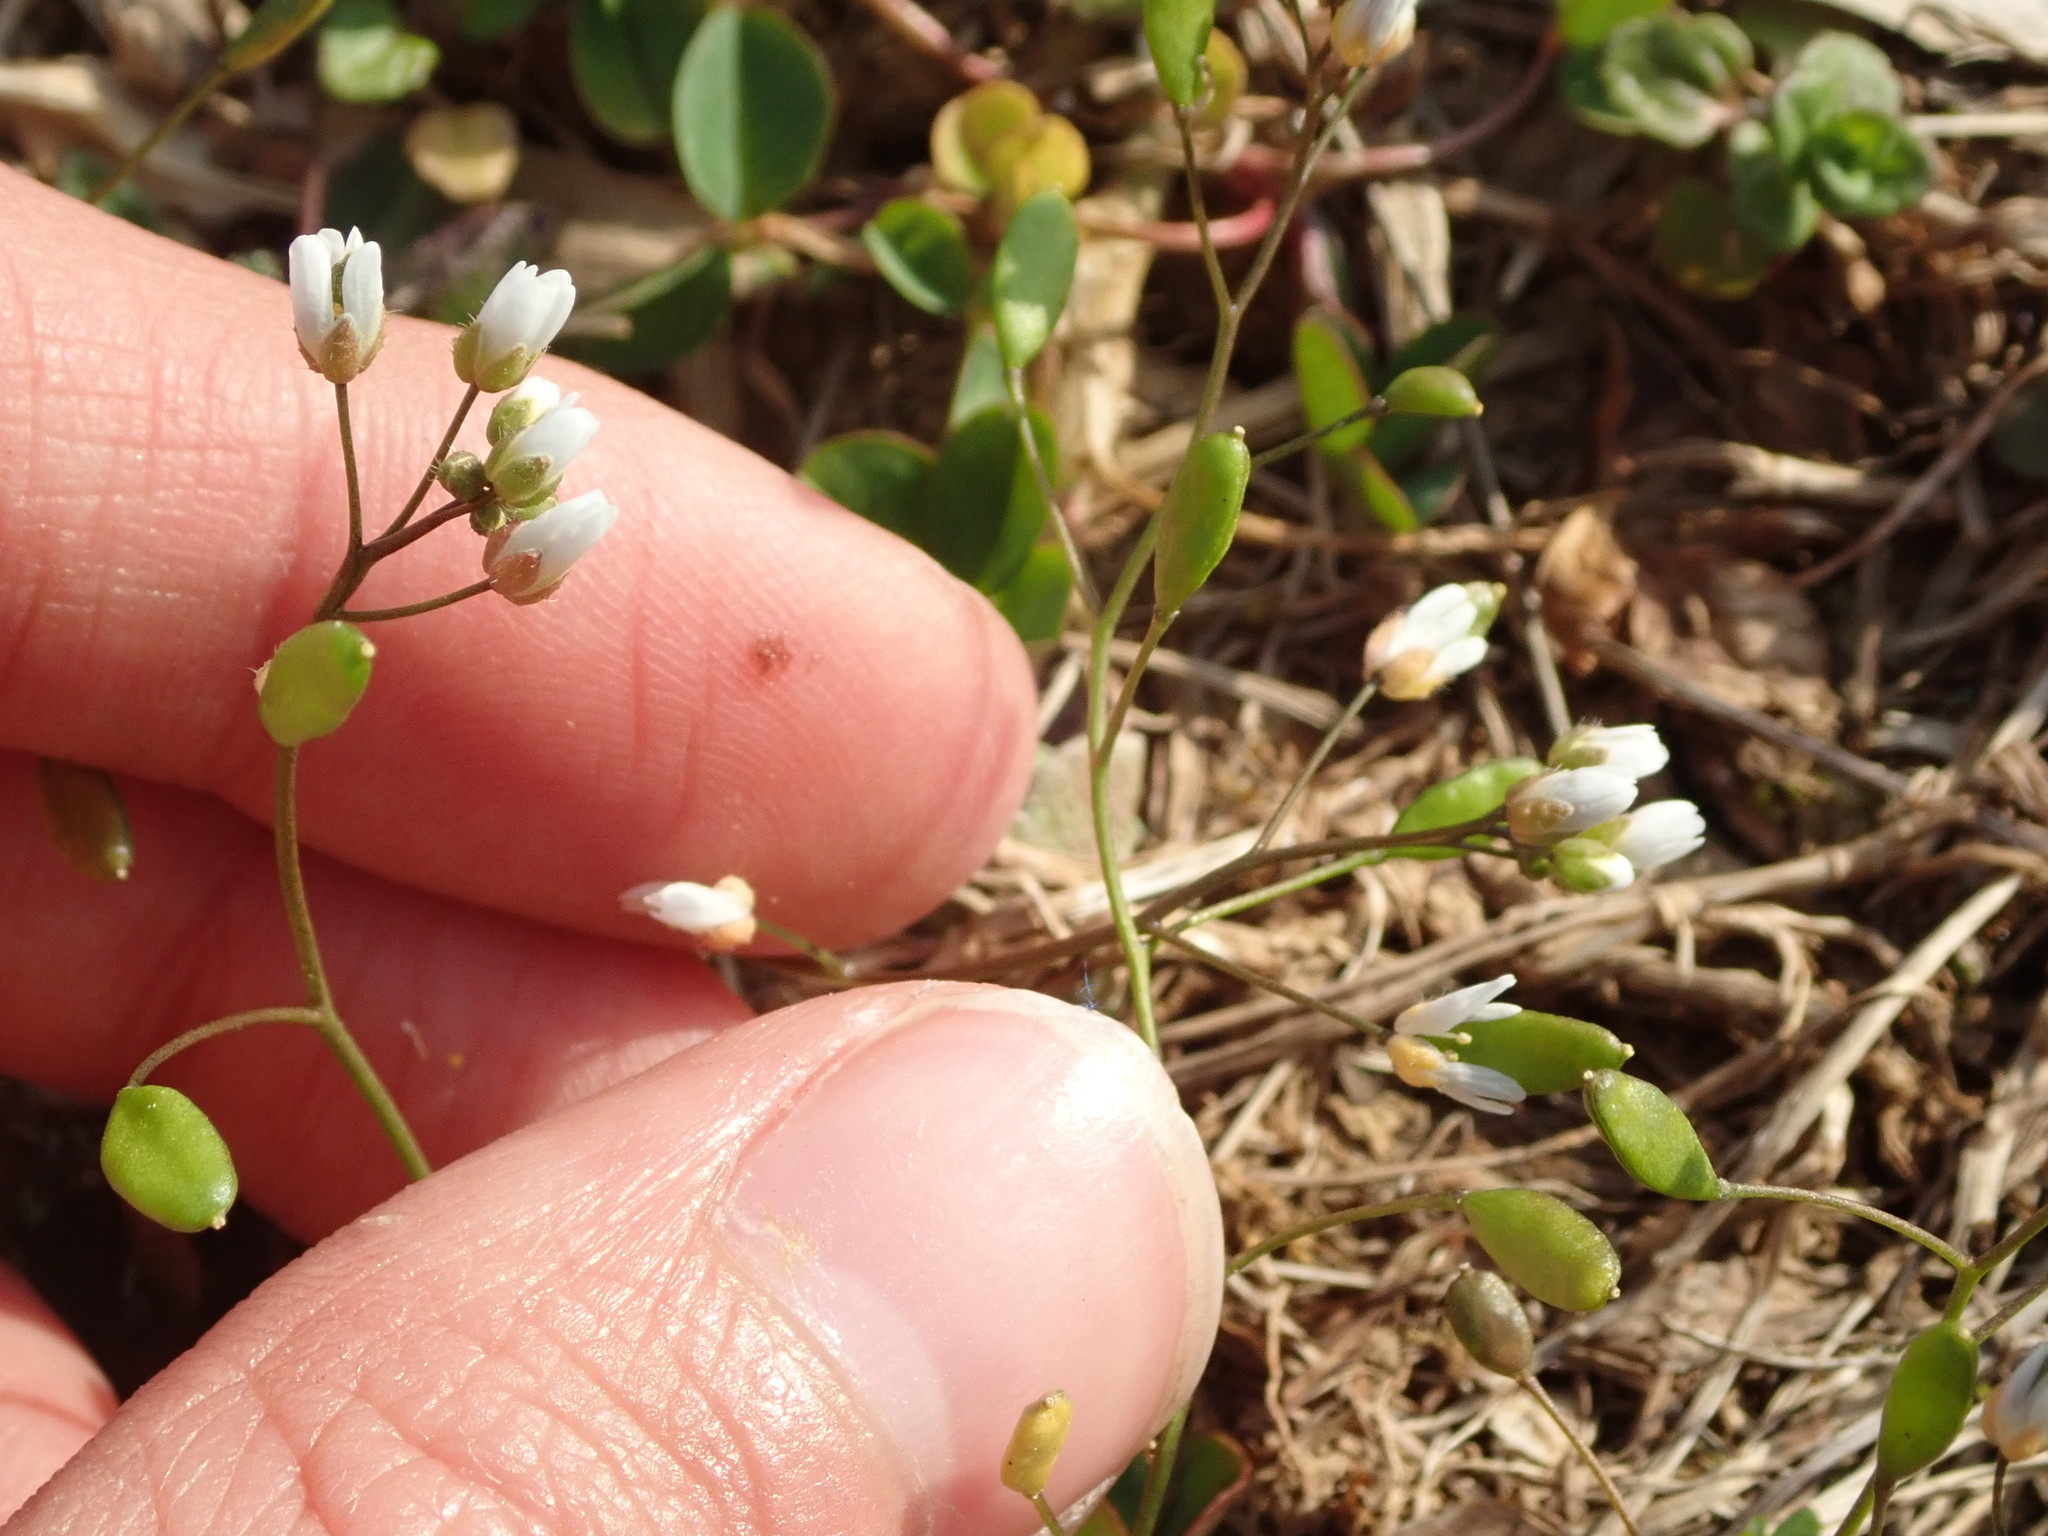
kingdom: Plantae
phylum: Tracheophyta
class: Magnoliopsida
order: Brassicales
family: Brassicaceae
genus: Draba
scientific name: Draba verna
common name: Spring draba
